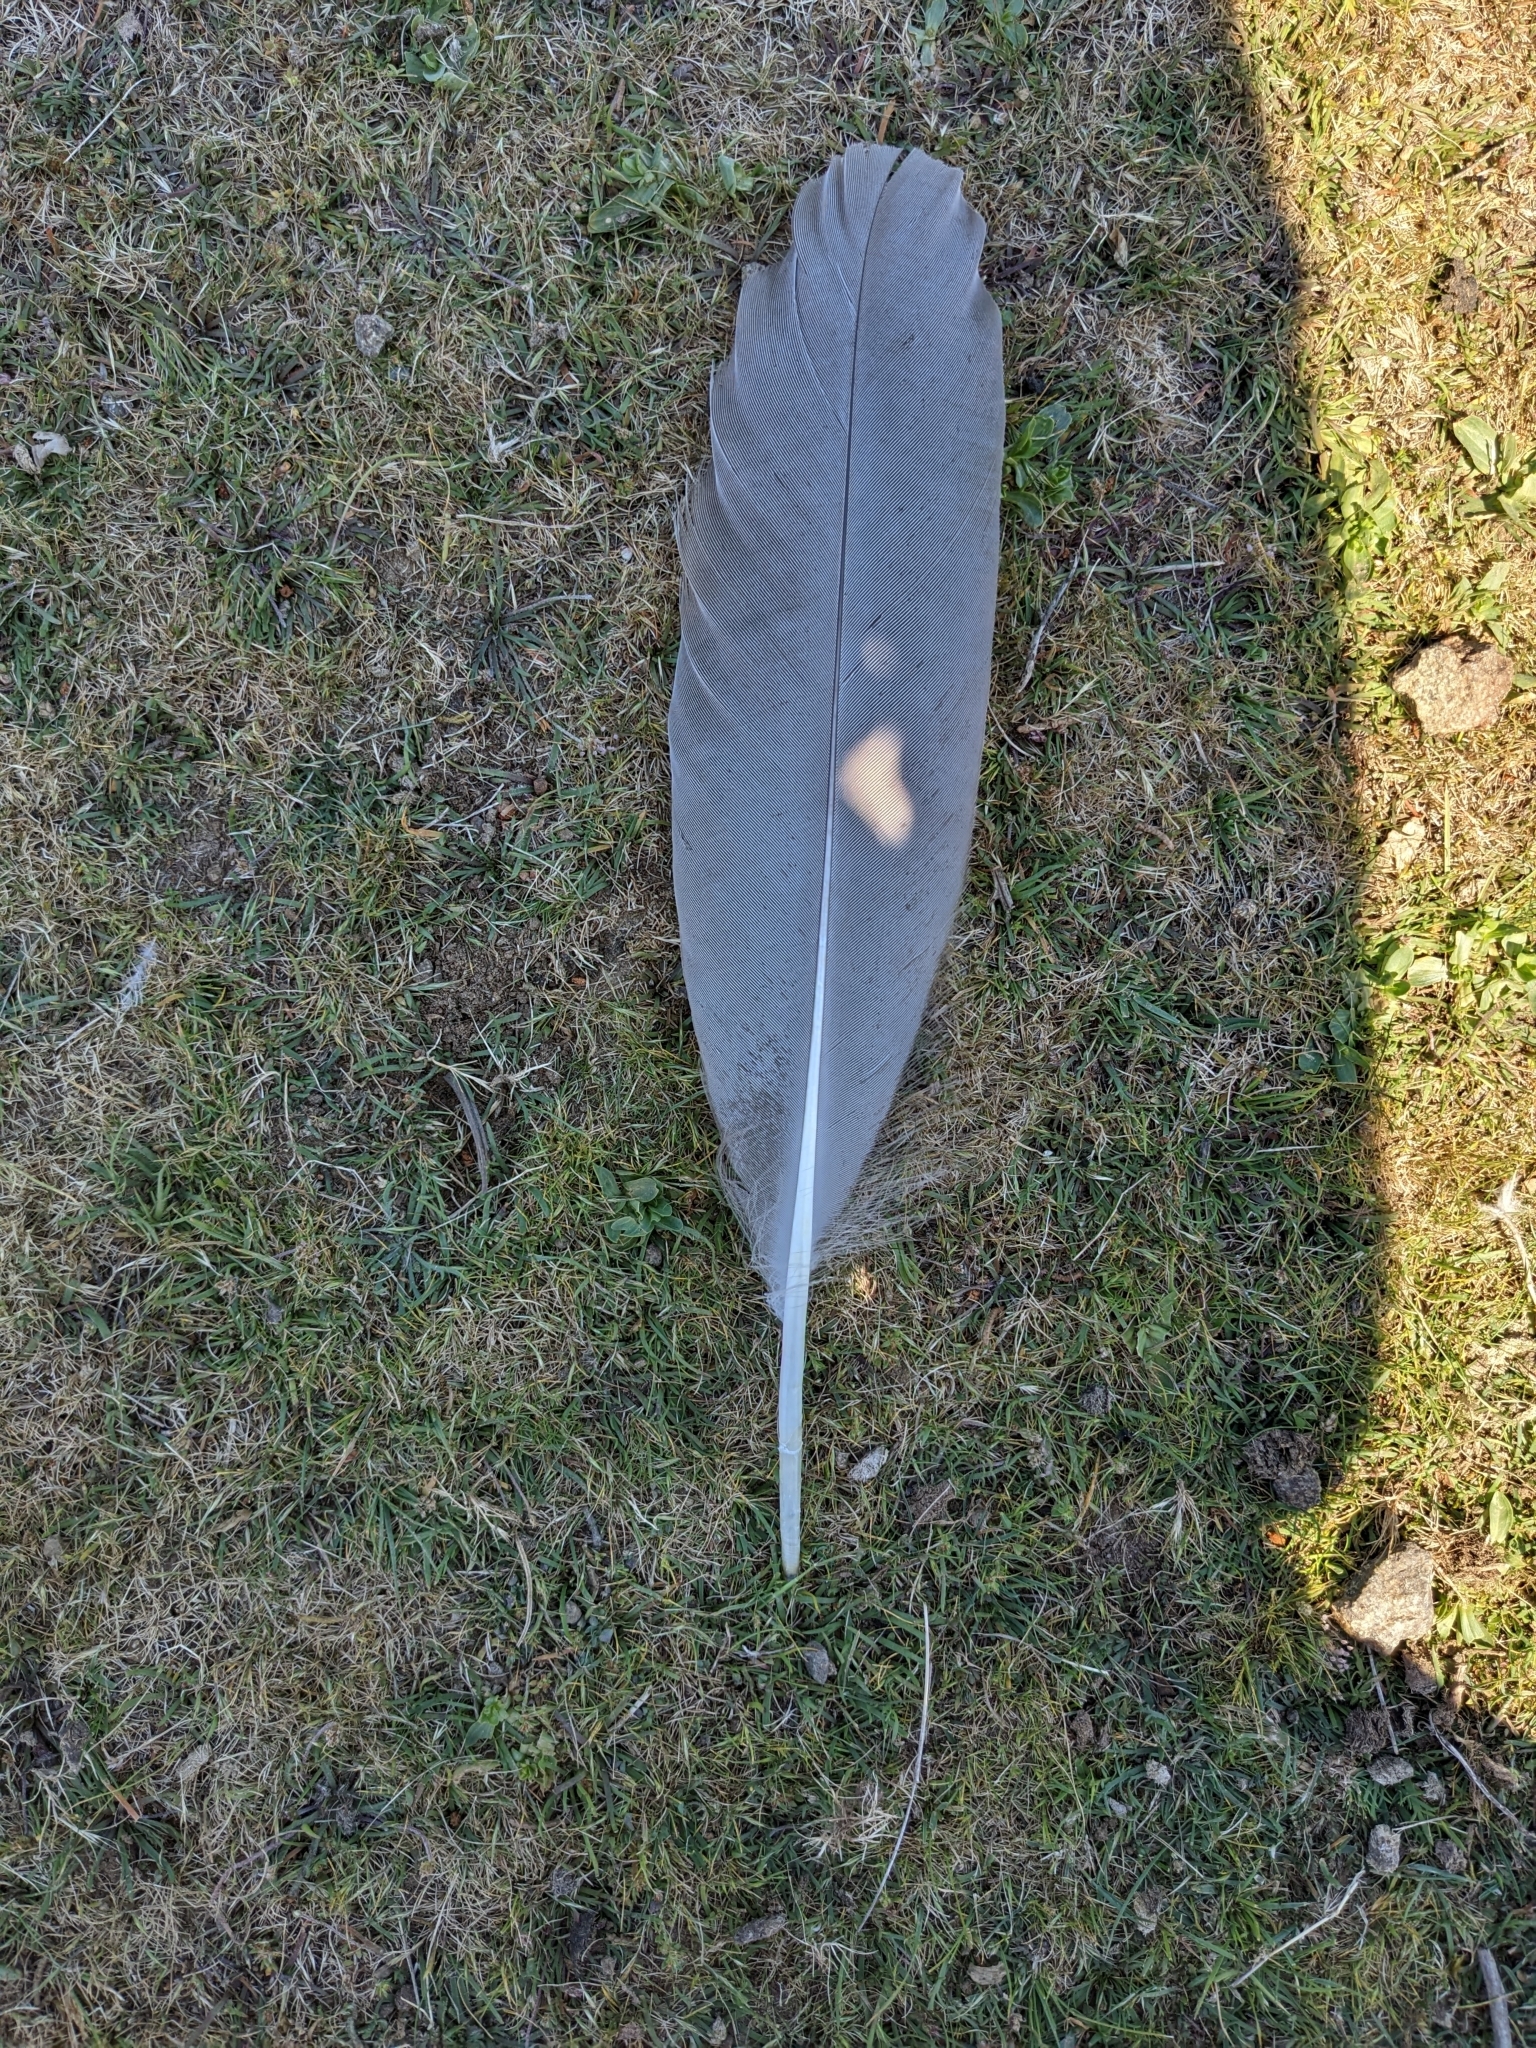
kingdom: Animalia
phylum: Chordata
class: Aves
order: Anseriformes
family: Anatidae
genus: Cereopsis
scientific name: Cereopsis novaehollandiae
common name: Cape barren goose
